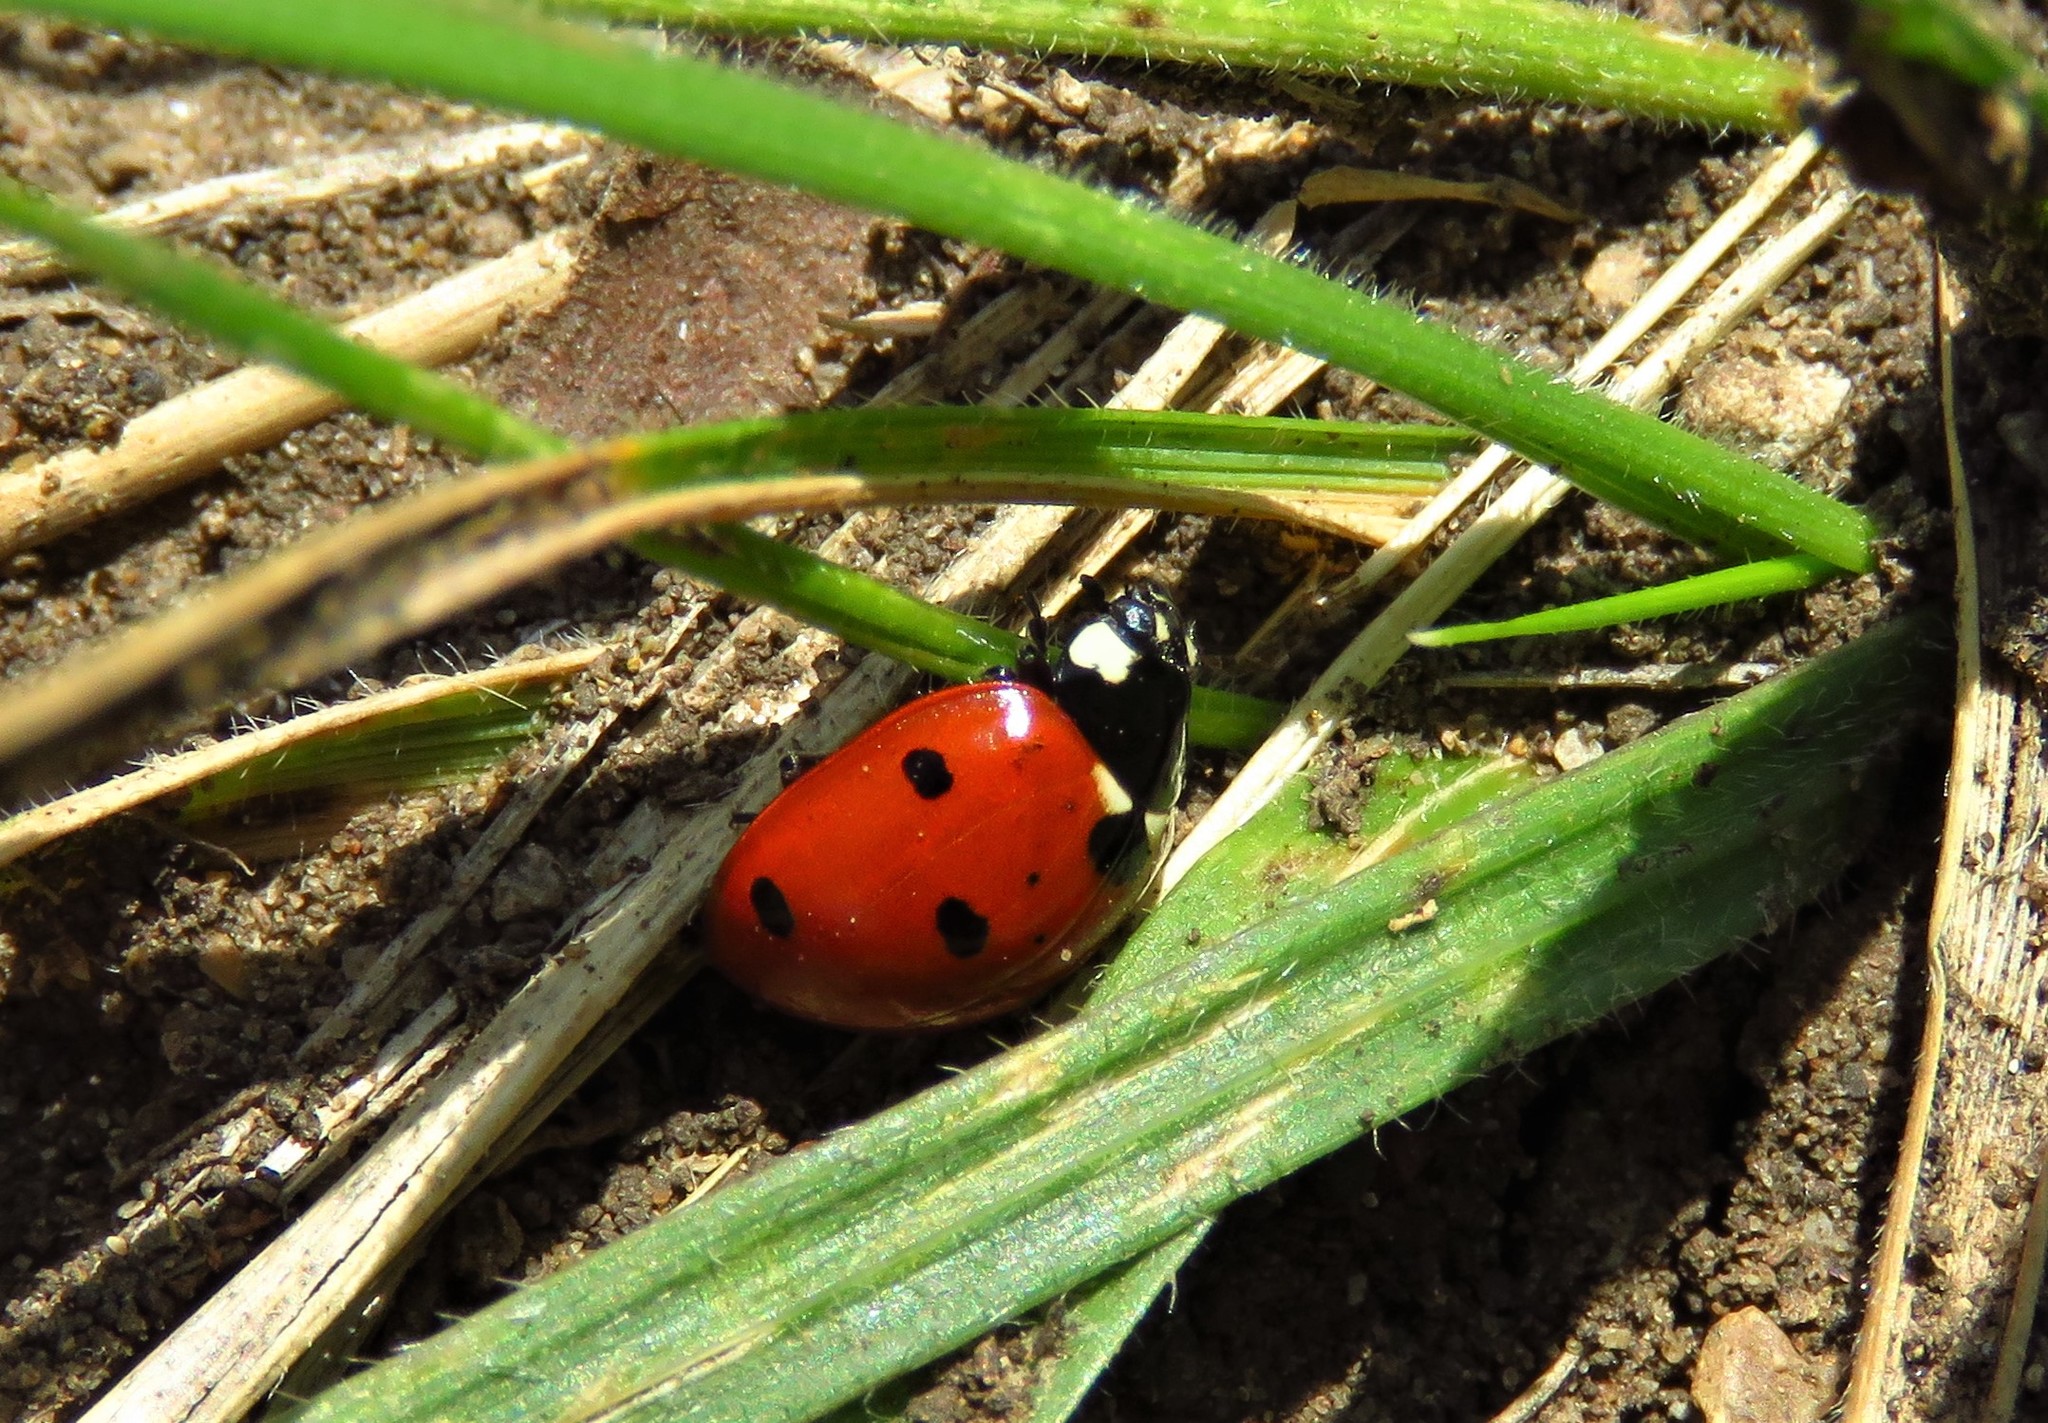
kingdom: Animalia
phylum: Arthropoda
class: Insecta
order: Coleoptera
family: Coccinellidae
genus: Coccinella
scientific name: Coccinella septempunctata
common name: Sevenspotted lady beetle
